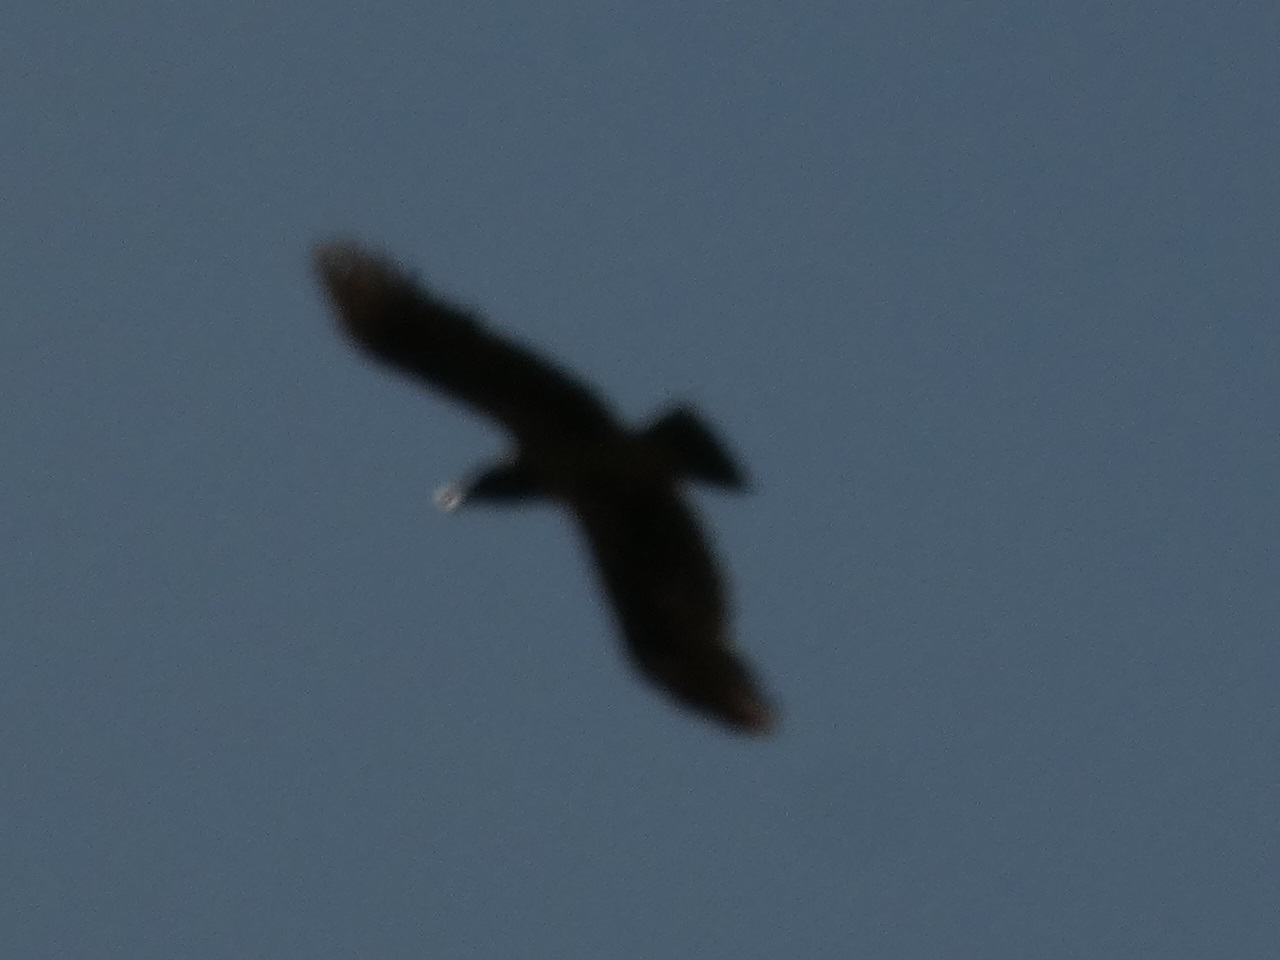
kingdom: Animalia
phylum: Chordata
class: Aves
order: Passeriformes
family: Corvidae
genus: Corvus
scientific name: Corvus corax
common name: Common raven
